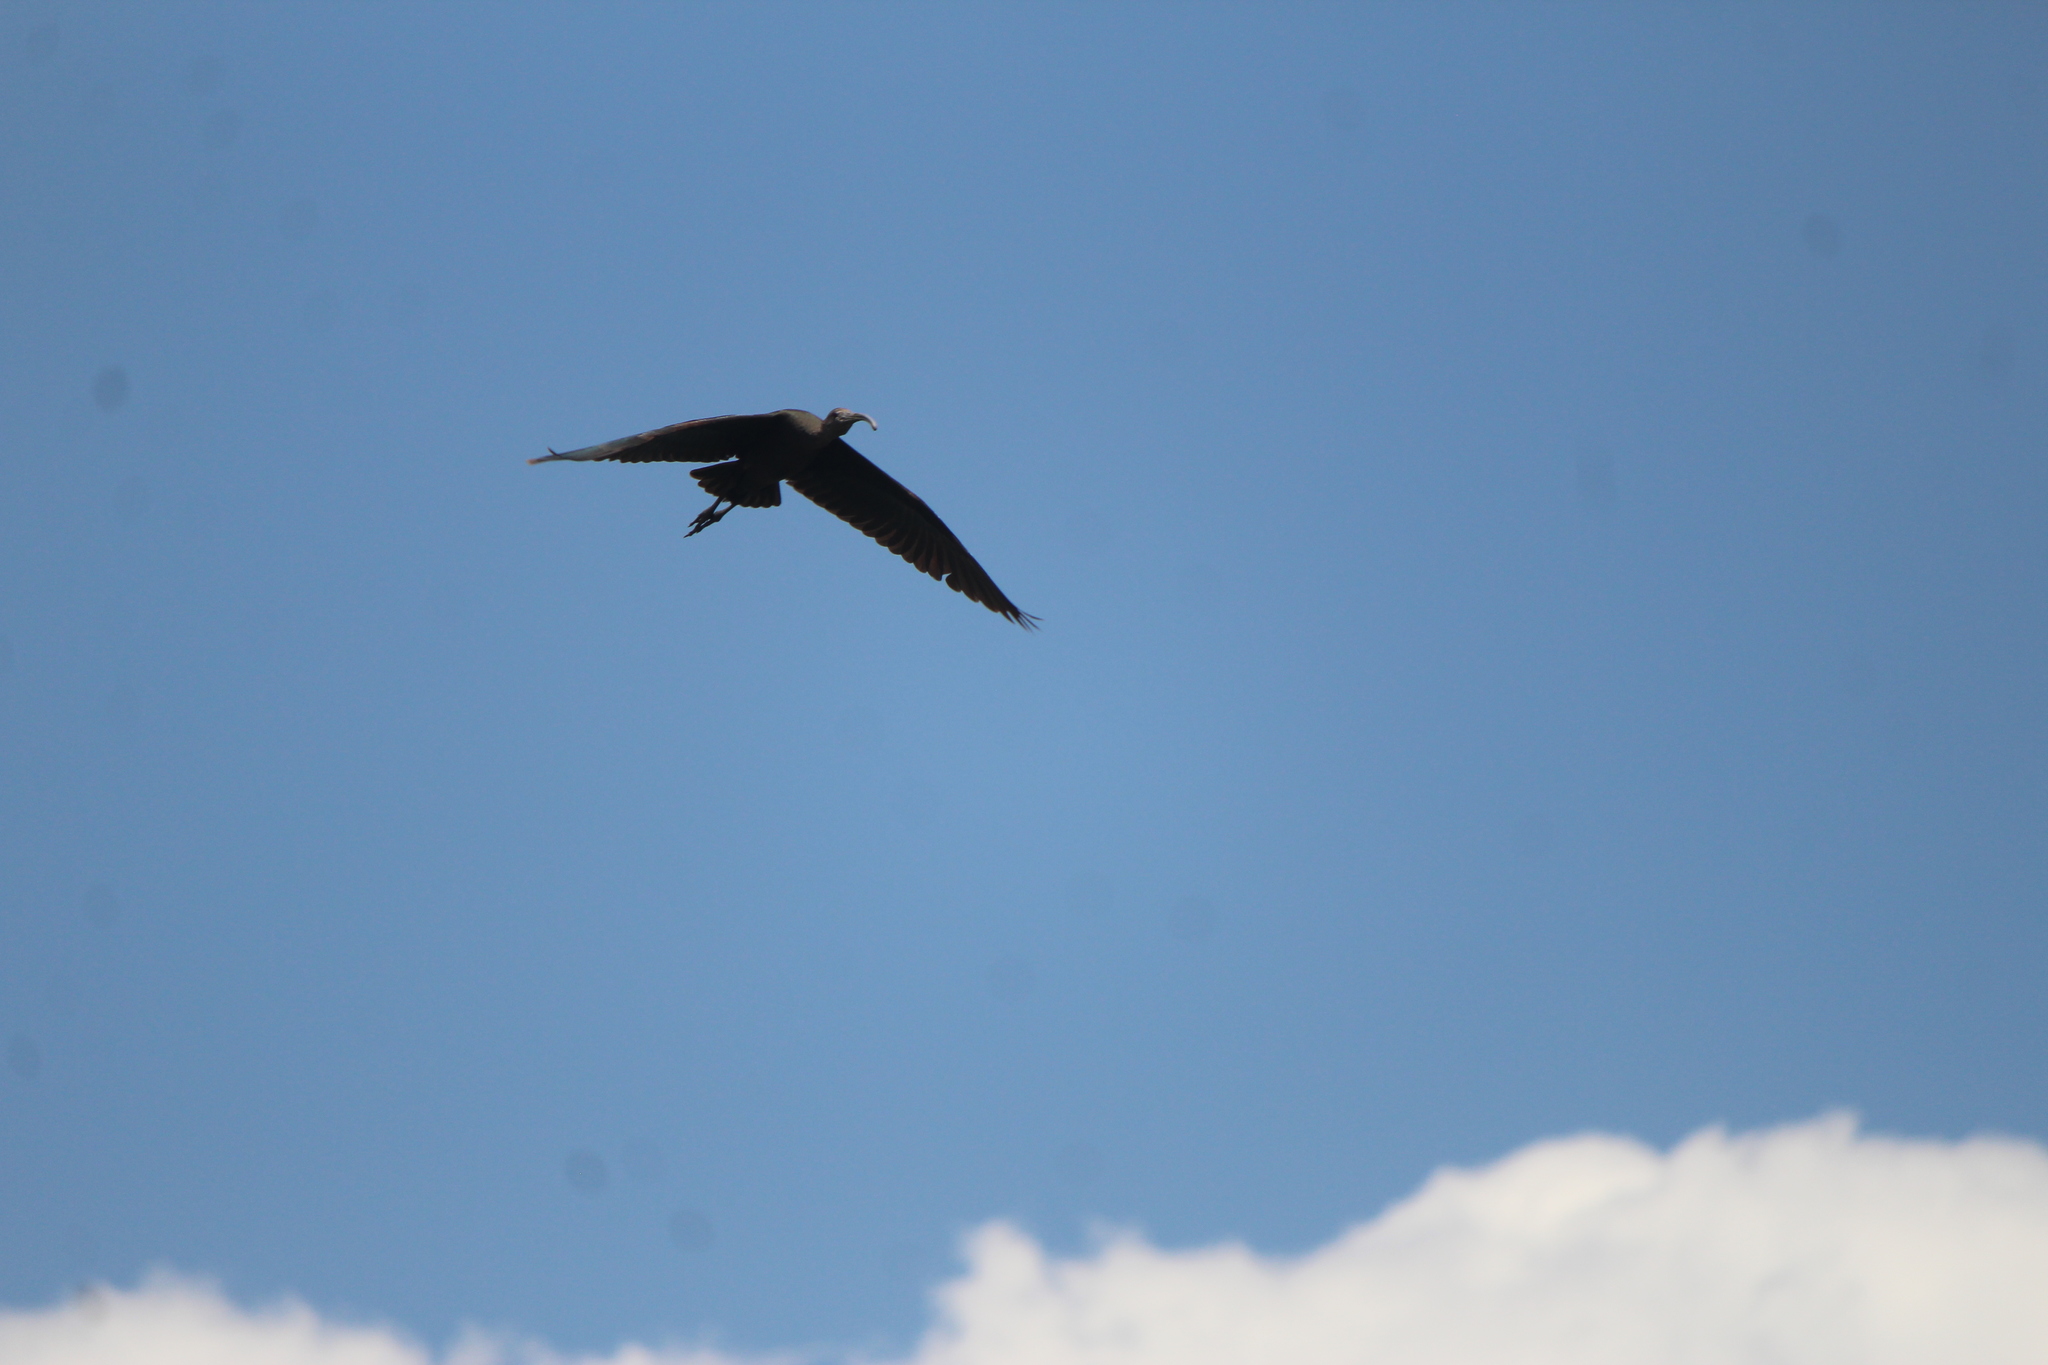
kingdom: Animalia
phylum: Chordata
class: Aves
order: Pelecaniformes
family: Threskiornithidae
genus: Plegadis
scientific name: Plegadis chihi
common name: White-faced ibis
